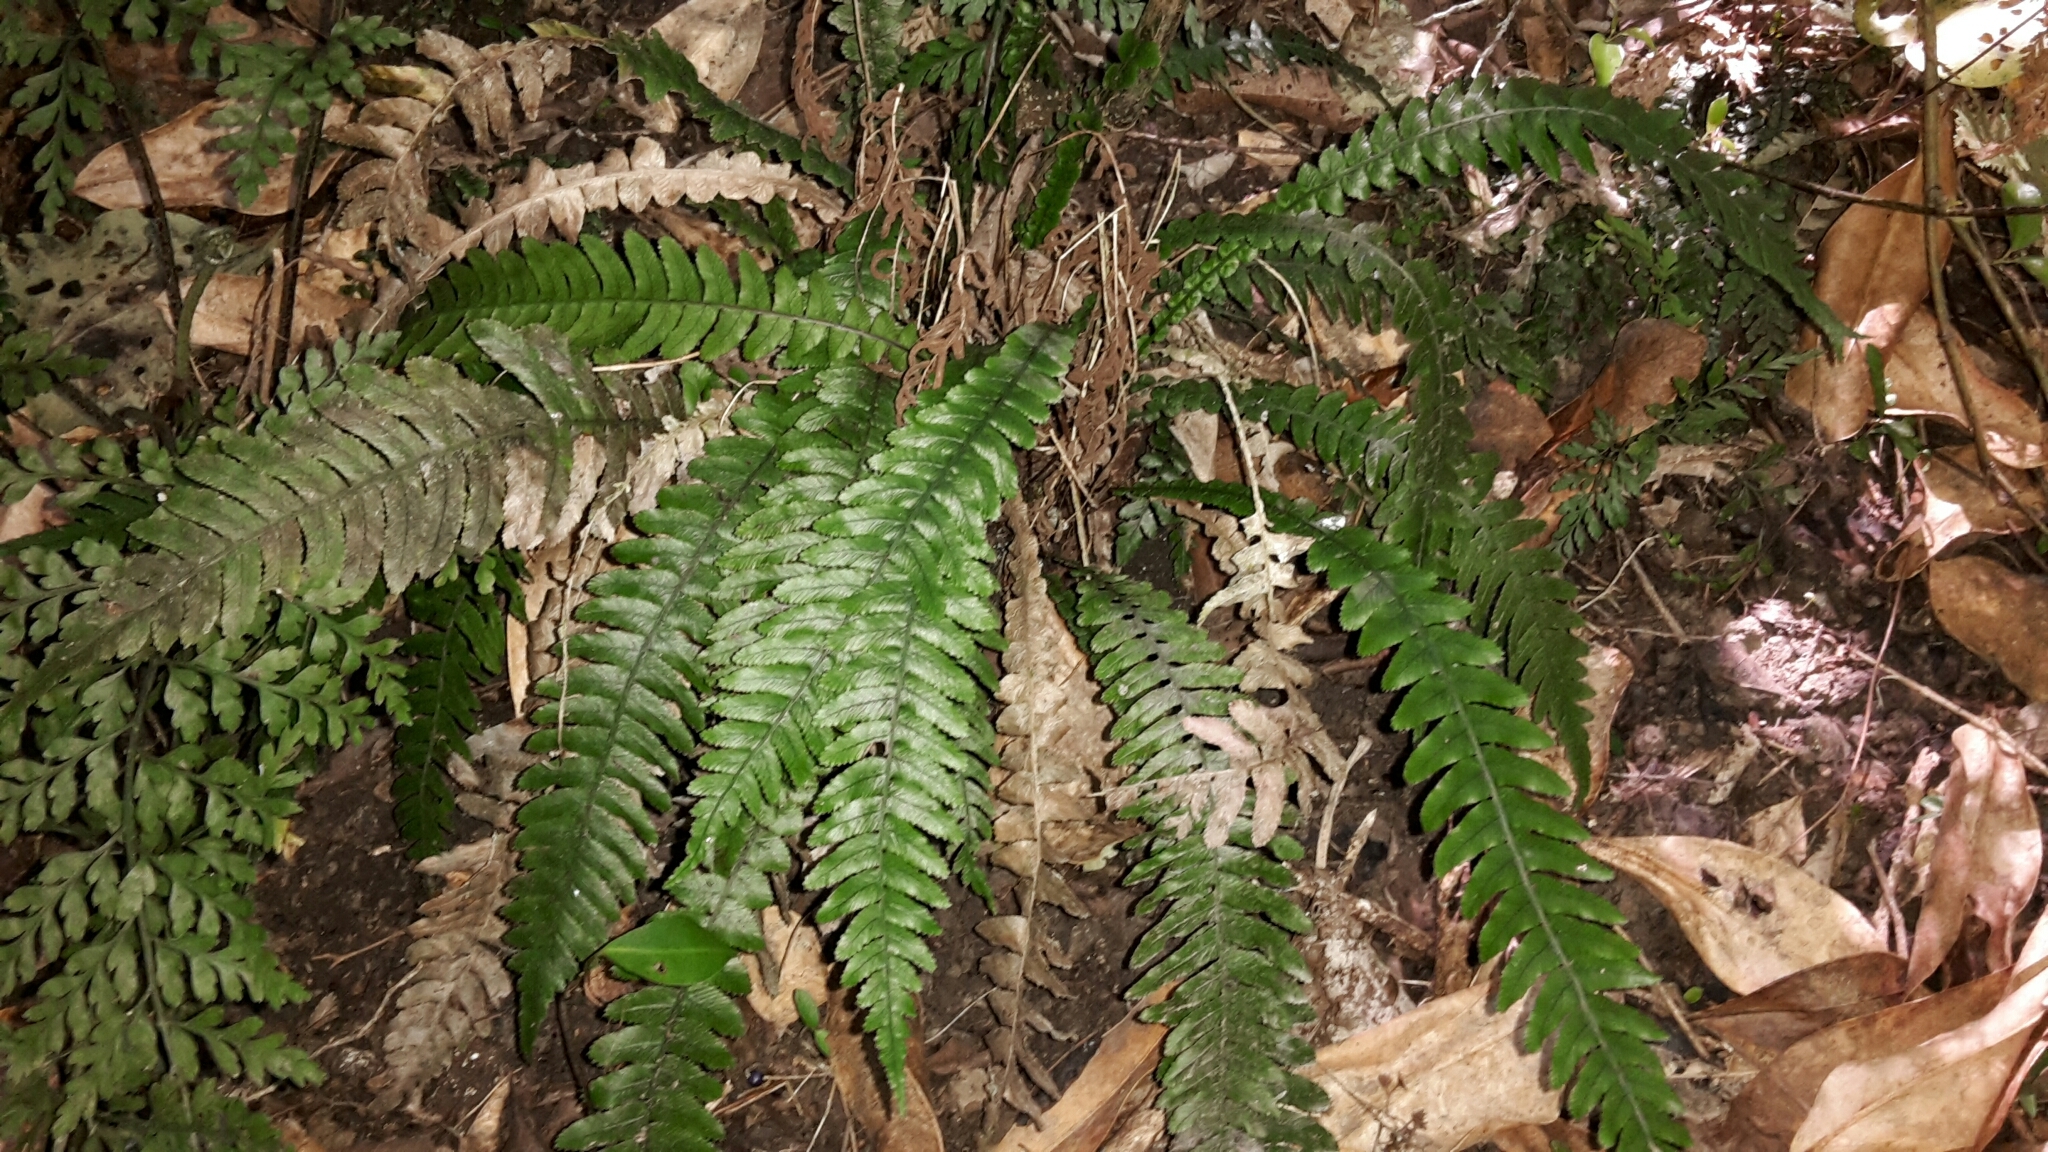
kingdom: Plantae
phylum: Tracheophyta
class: Polypodiopsida
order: Polypodiales
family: Blechnaceae
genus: Austroblechnum
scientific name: Austroblechnum lanceolatum
